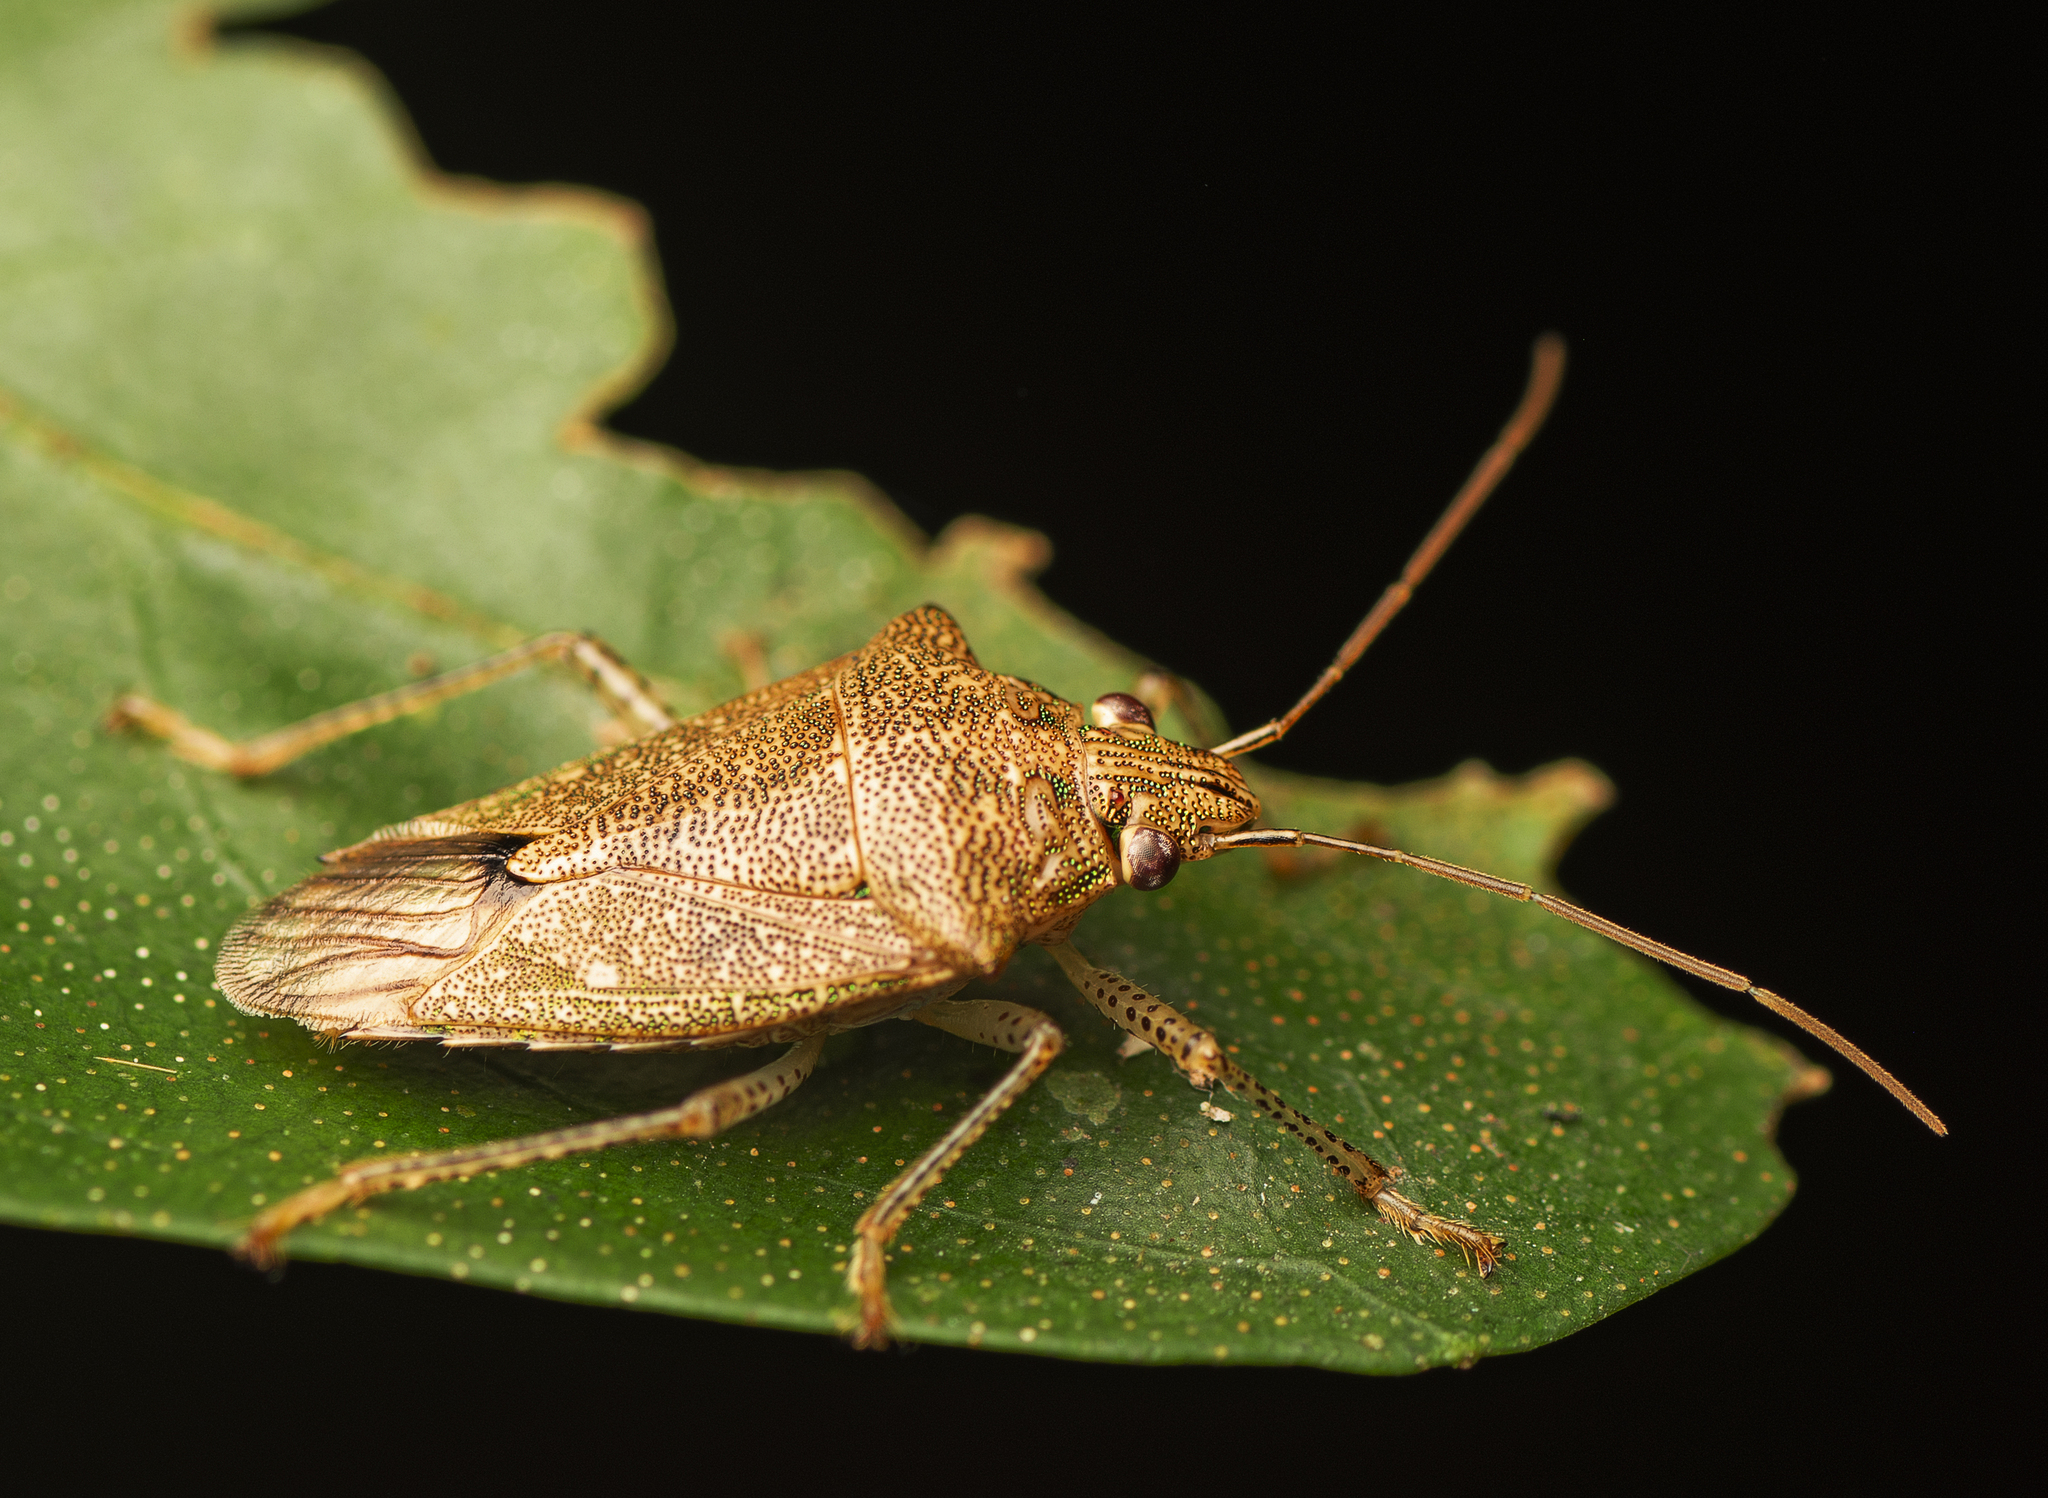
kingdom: Animalia
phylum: Arthropoda
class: Insecta
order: Hemiptera
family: Pentatomidae
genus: Accarana
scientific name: Accarana
